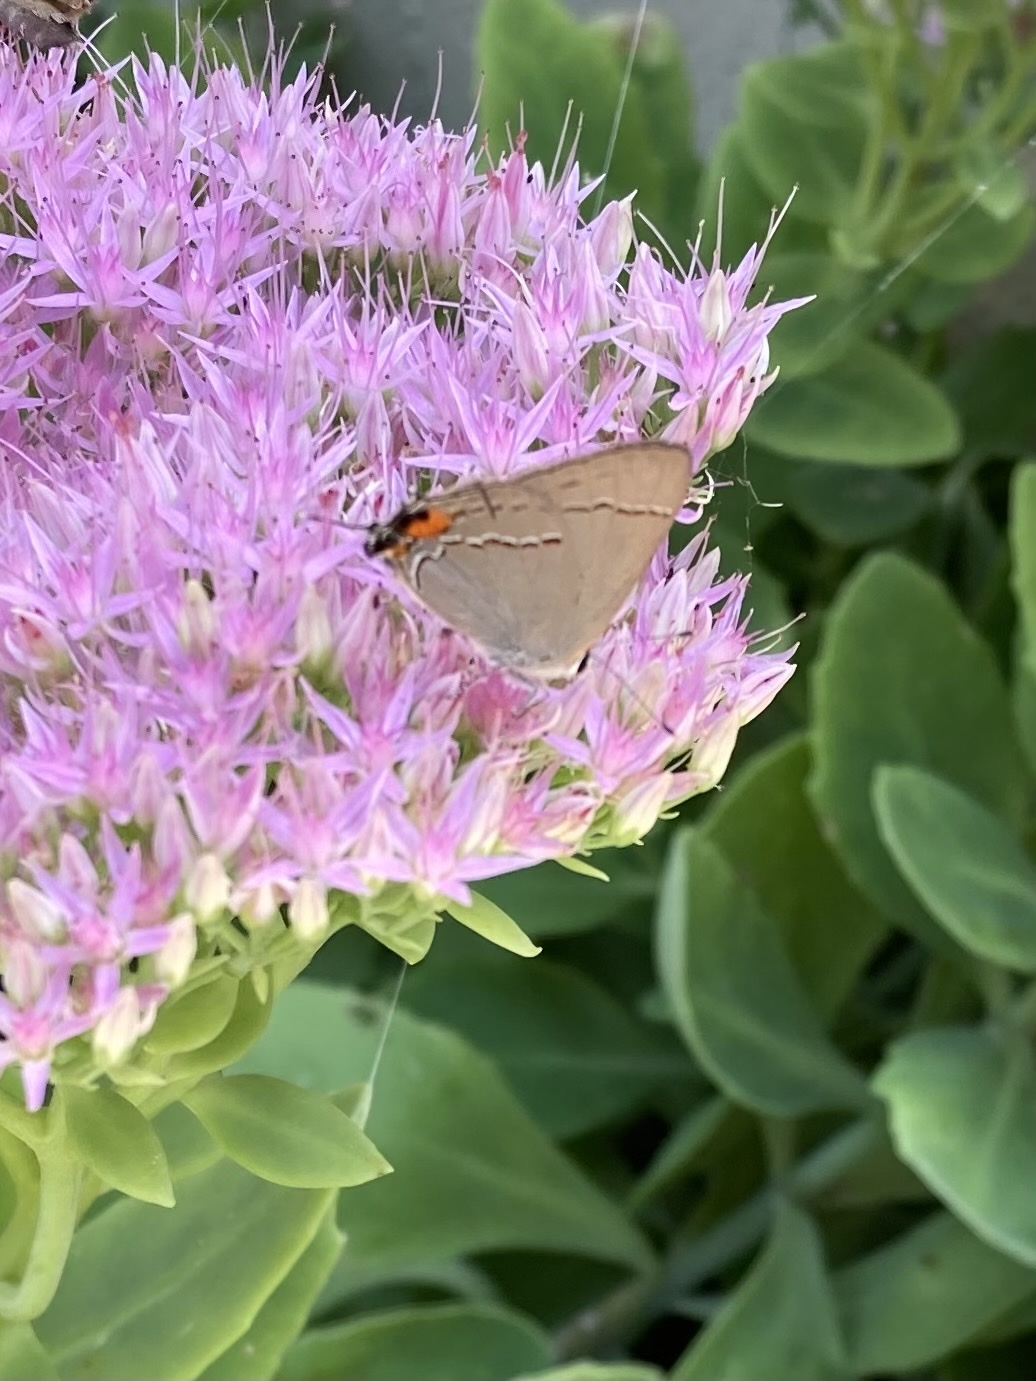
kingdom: Animalia
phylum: Arthropoda
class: Insecta
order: Lepidoptera
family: Lycaenidae
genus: Strymon
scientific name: Strymon melinus
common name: Gray hairstreak
